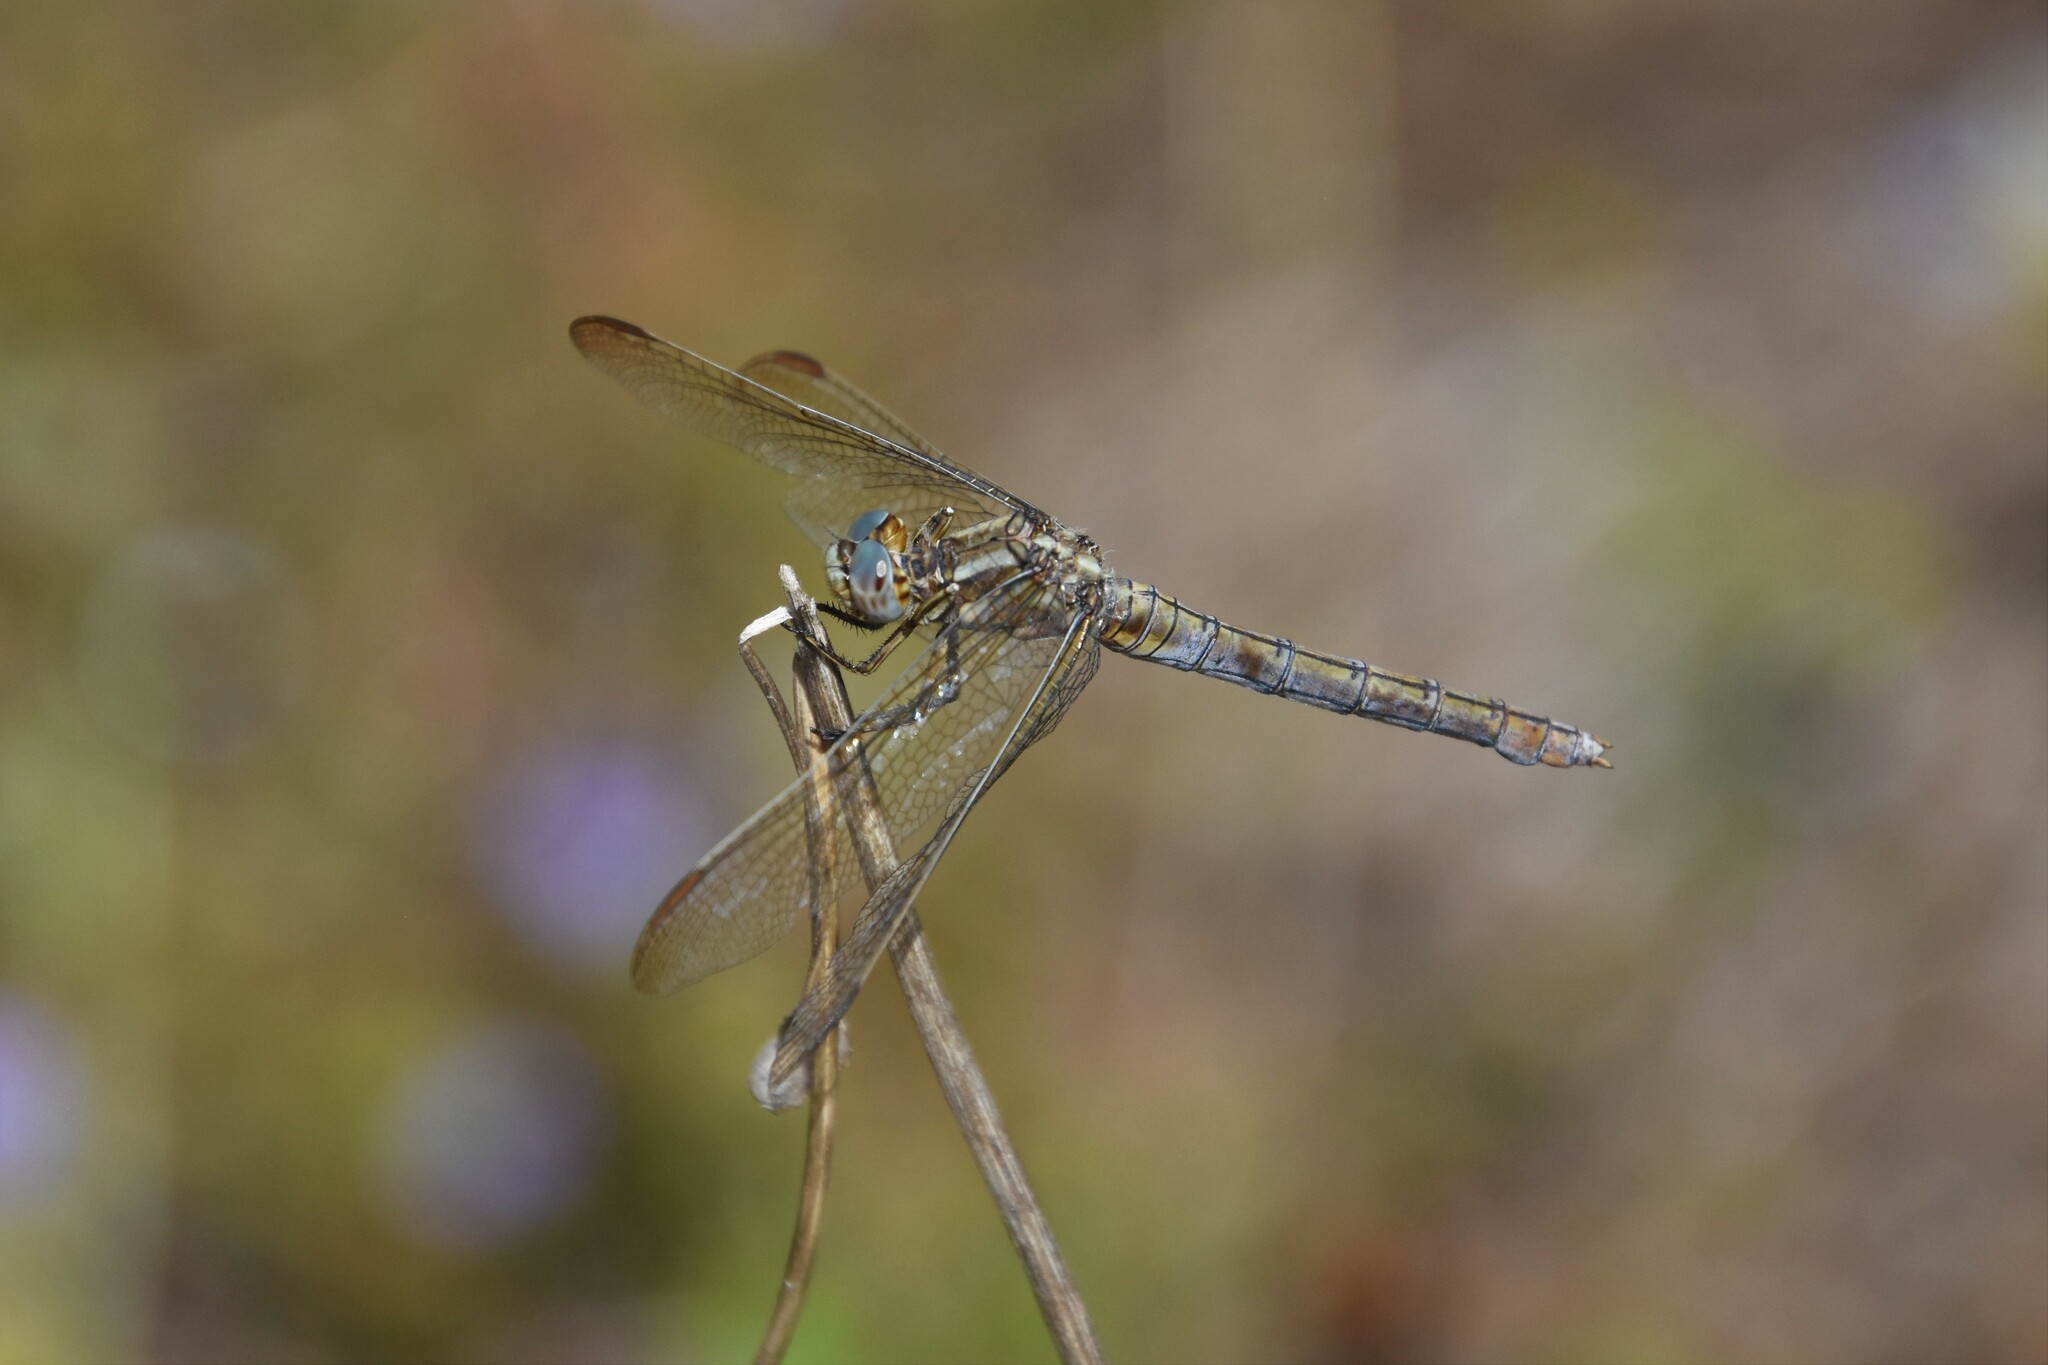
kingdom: Animalia
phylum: Arthropoda
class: Insecta
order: Odonata
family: Libellulidae
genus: Orthetrum
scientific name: Orthetrum coerulescens
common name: Keeled skimmer
